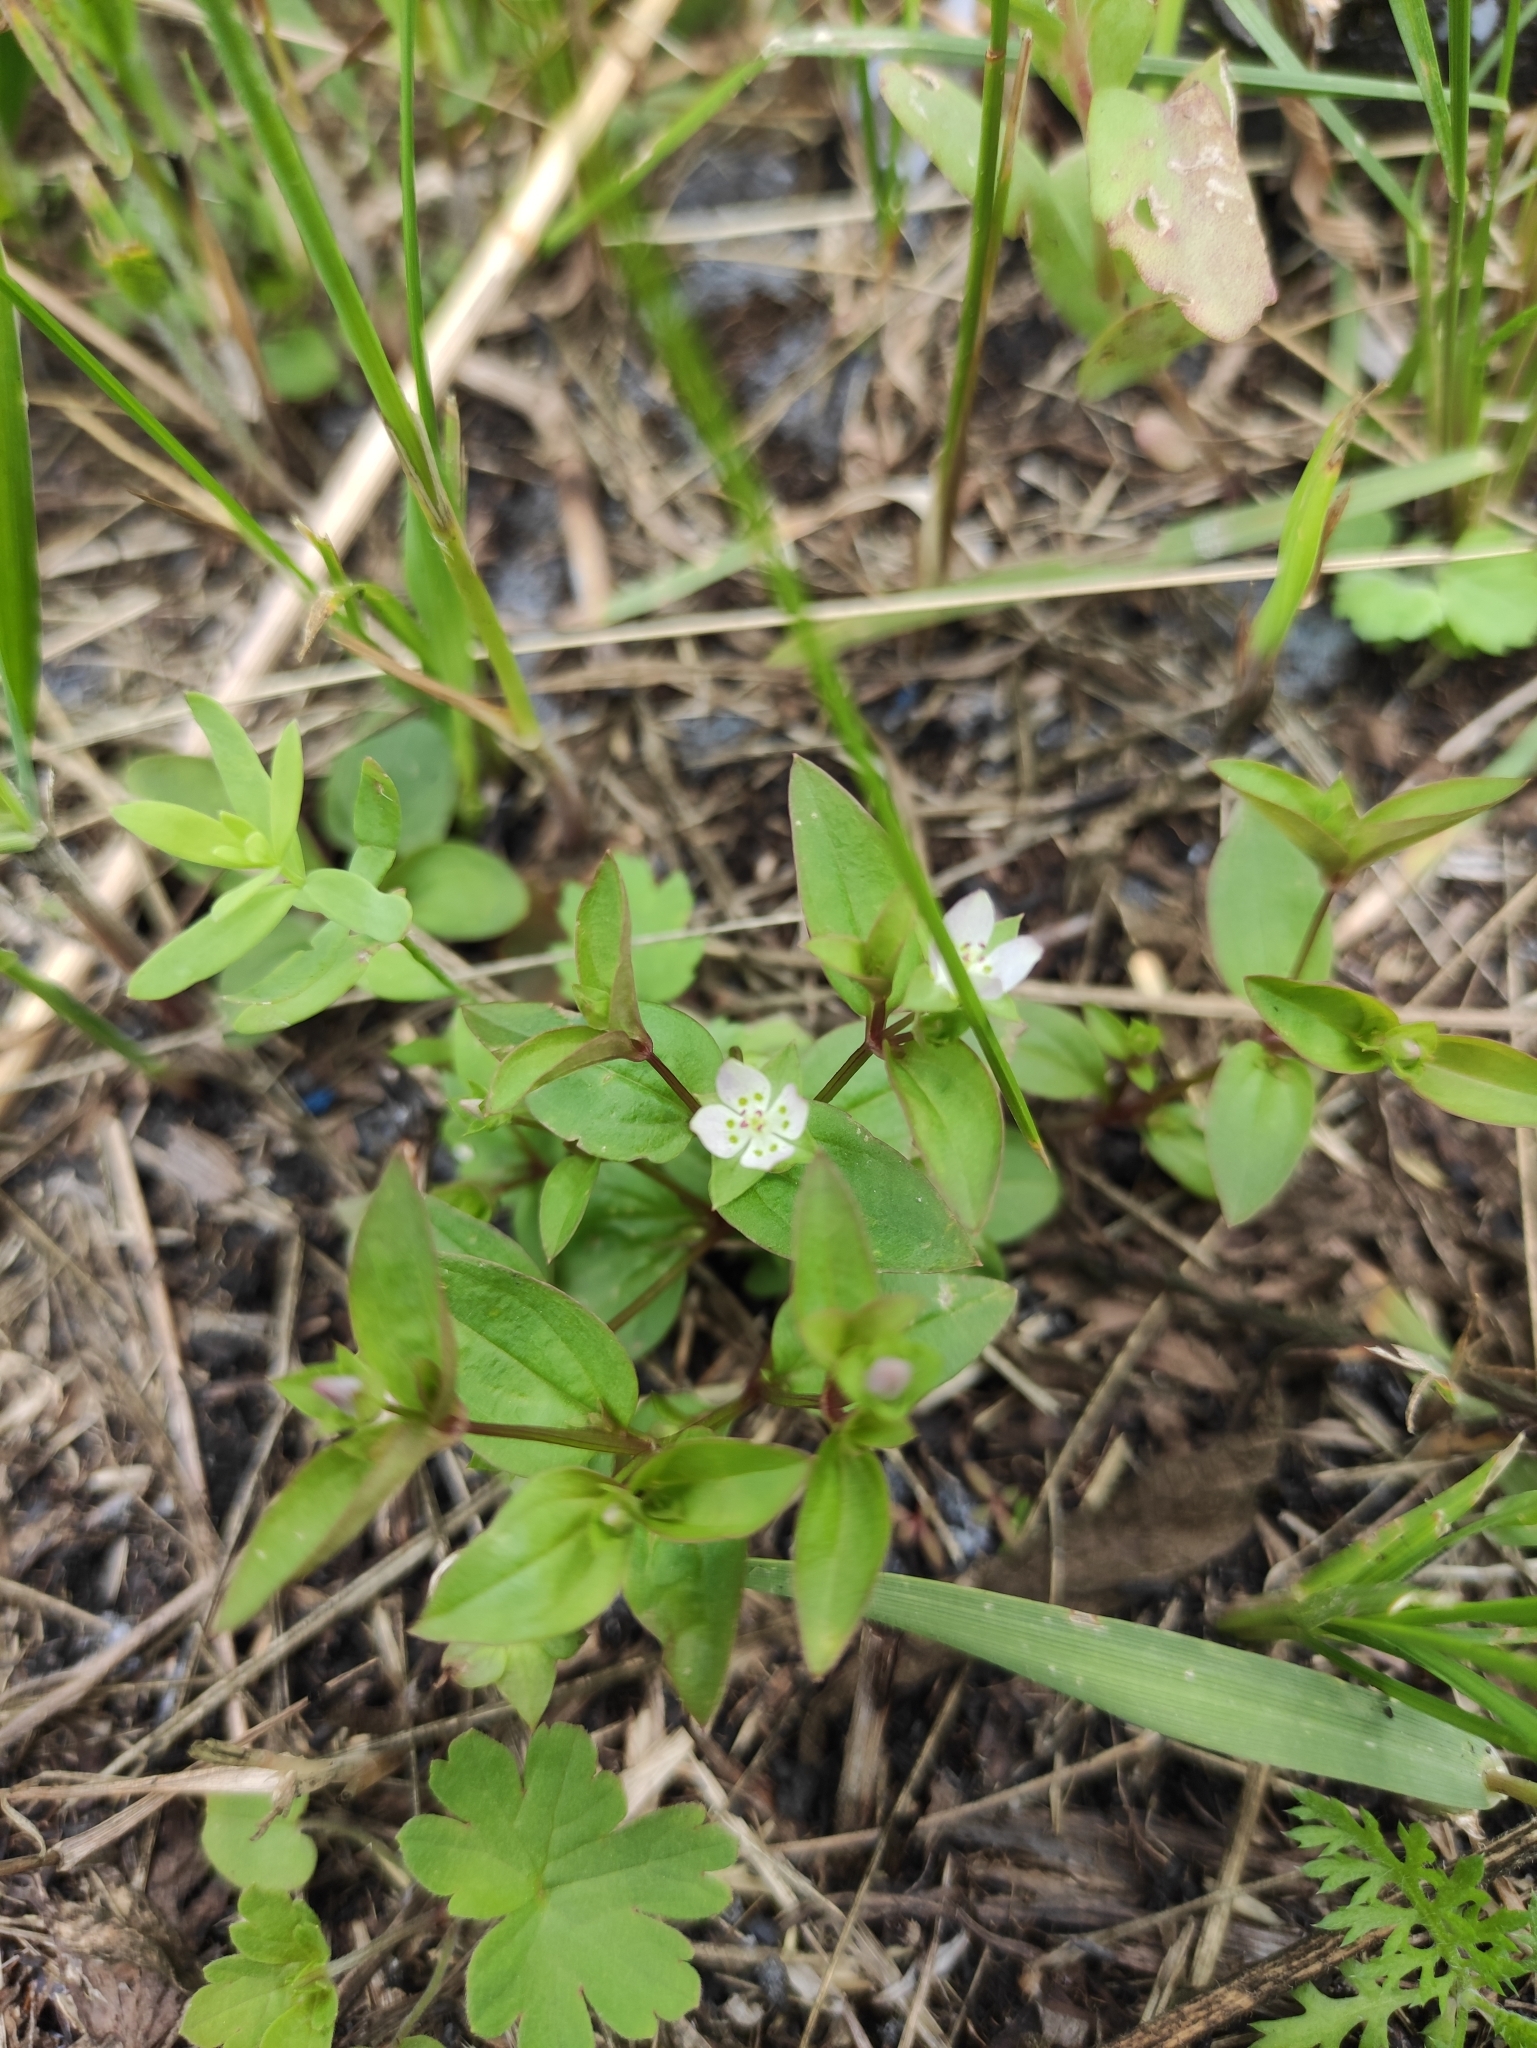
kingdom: Plantae
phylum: Tracheophyta
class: Magnoliopsida
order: Gentianales
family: Gentianaceae
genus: Swertia
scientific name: Swertia dichotoma
